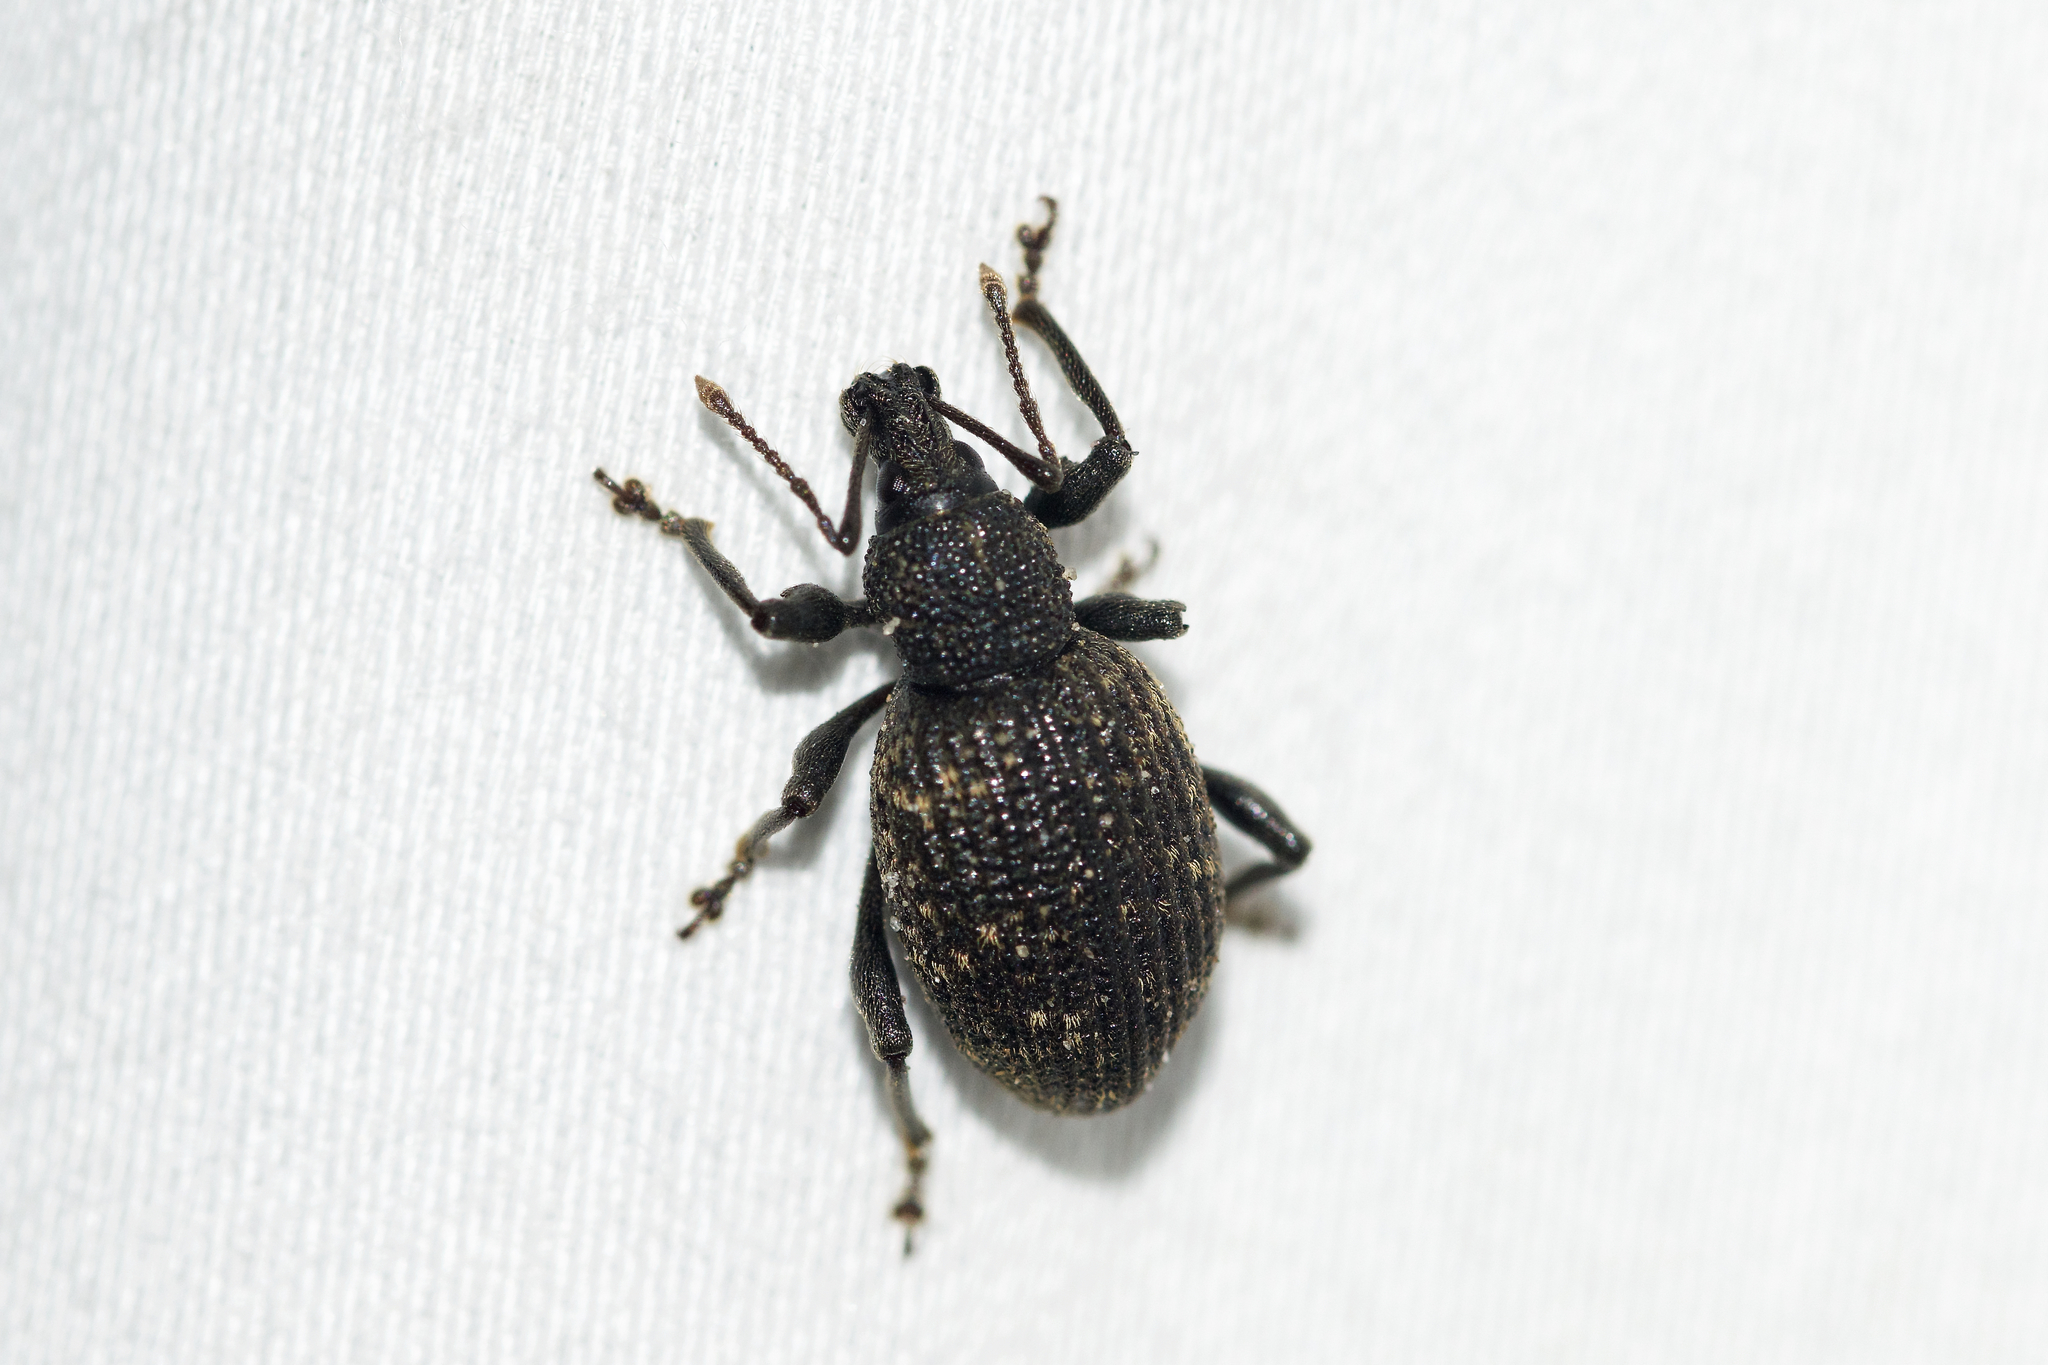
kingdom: Animalia
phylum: Arthropoda
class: Insecta
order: Coleoptera
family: Curculionidae
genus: Otiorhynchus
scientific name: Otiorhynchus sulcatus
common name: Black vine weevil
